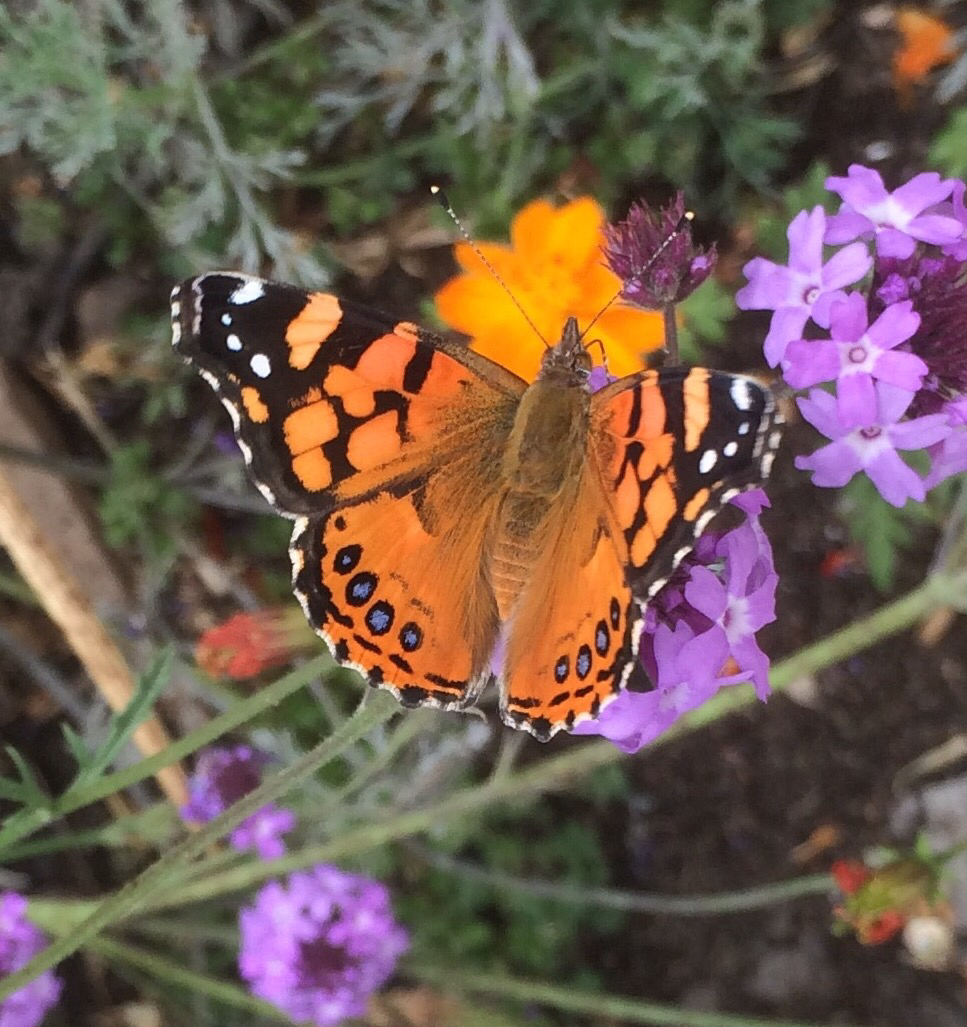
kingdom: Animalia
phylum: Arthropoda
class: Insecta
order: Lepidoptera
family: Nymphalidae
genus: Vanessa
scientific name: Vanessa annabella
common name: West coast lady
